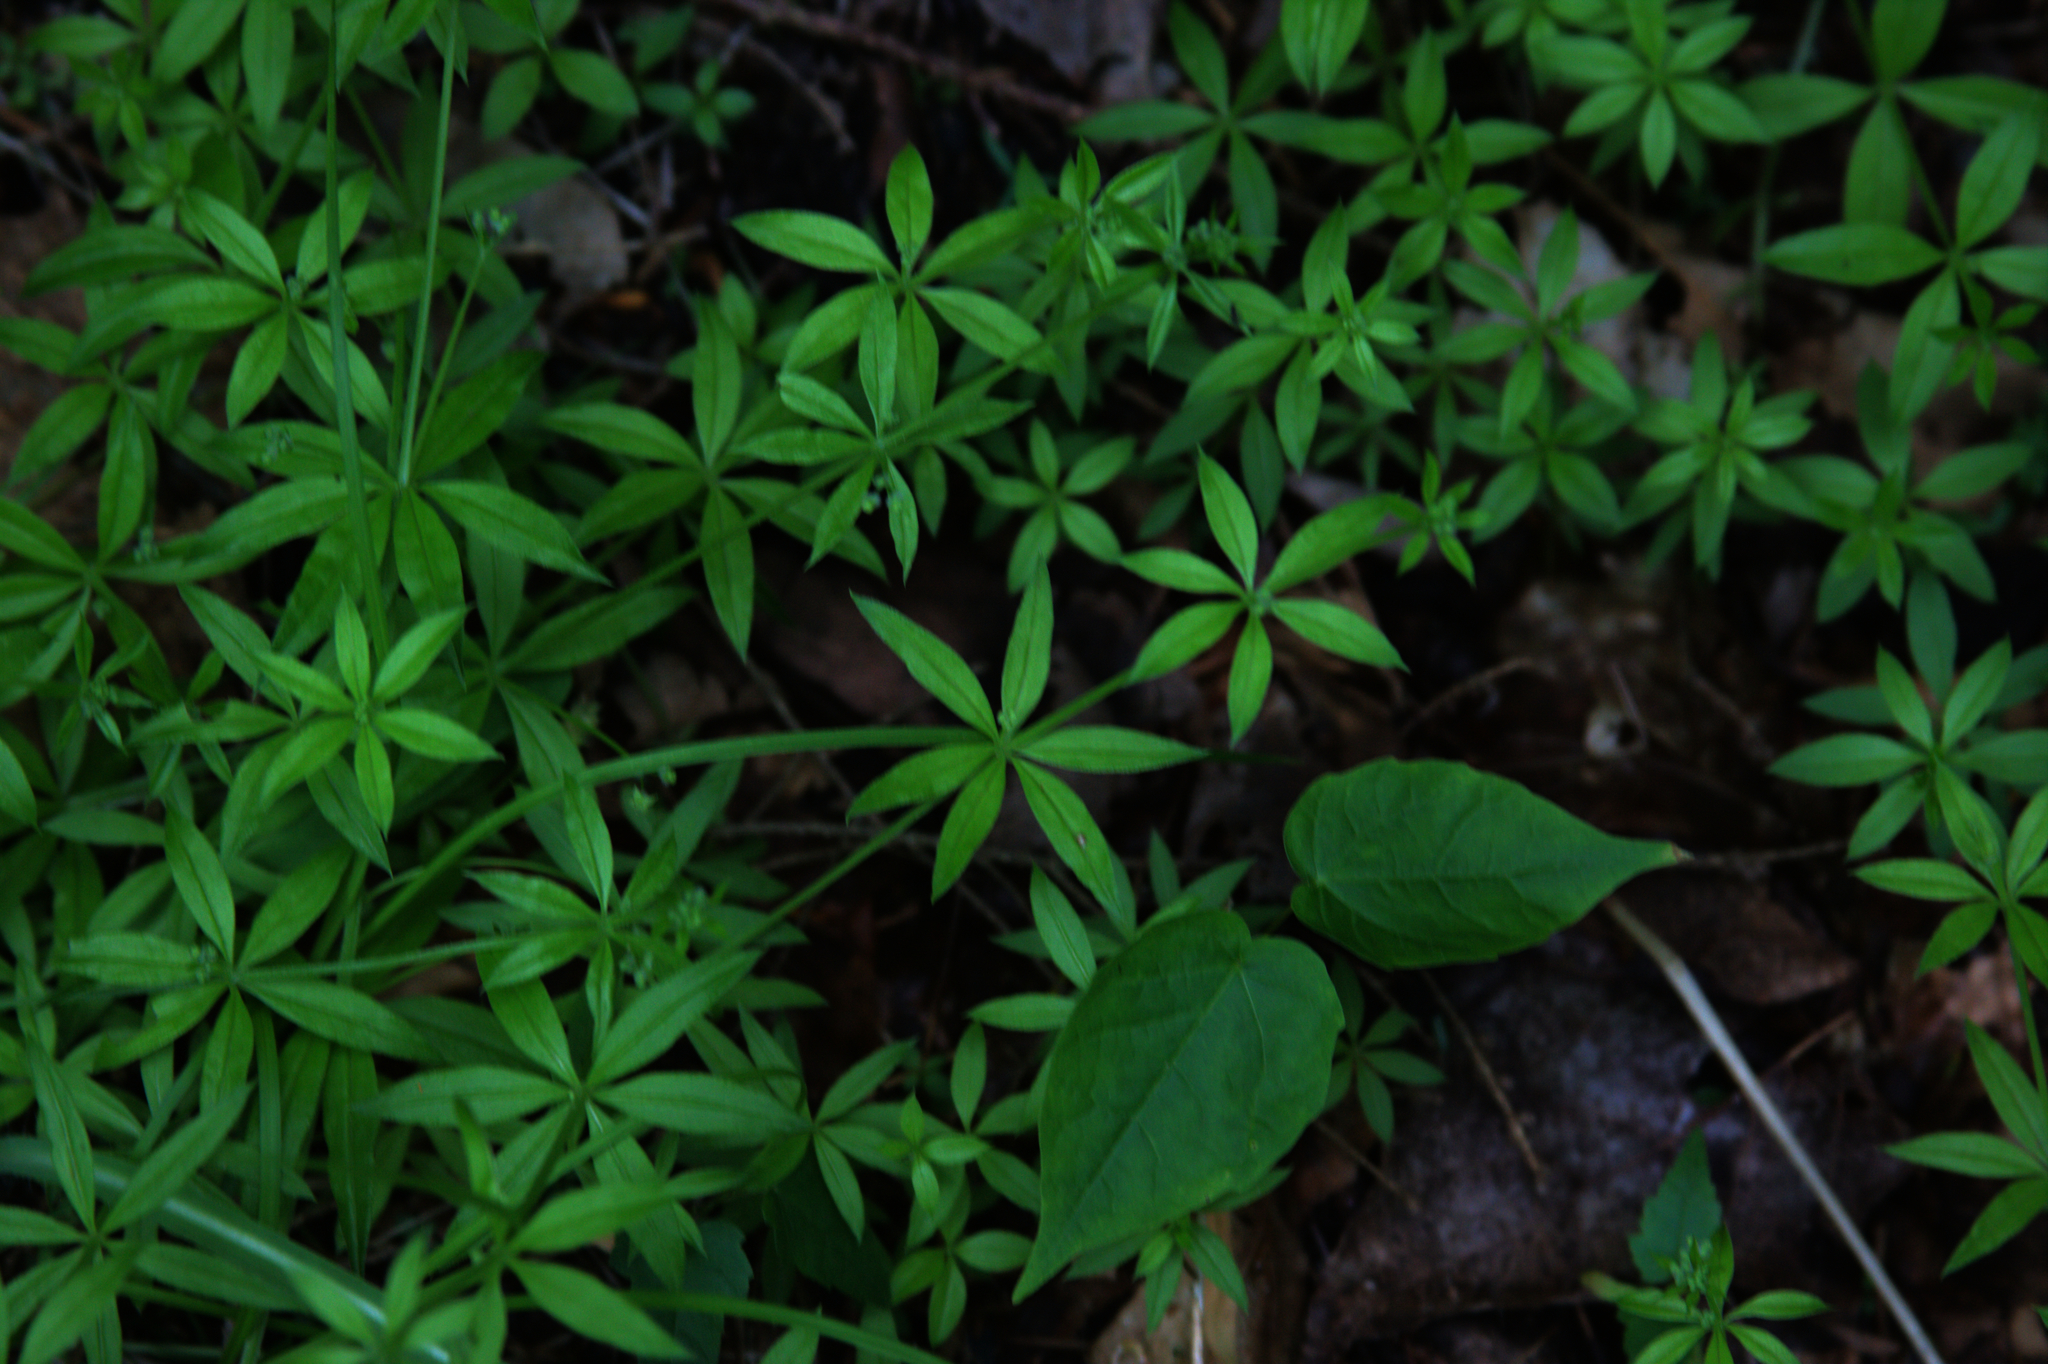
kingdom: Plantae
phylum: Tracheophyta
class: Magnoliopsida
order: Gentianales
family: Rubiaceae
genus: Galium
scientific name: Galium triflorum
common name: Fragrant bedstraw
